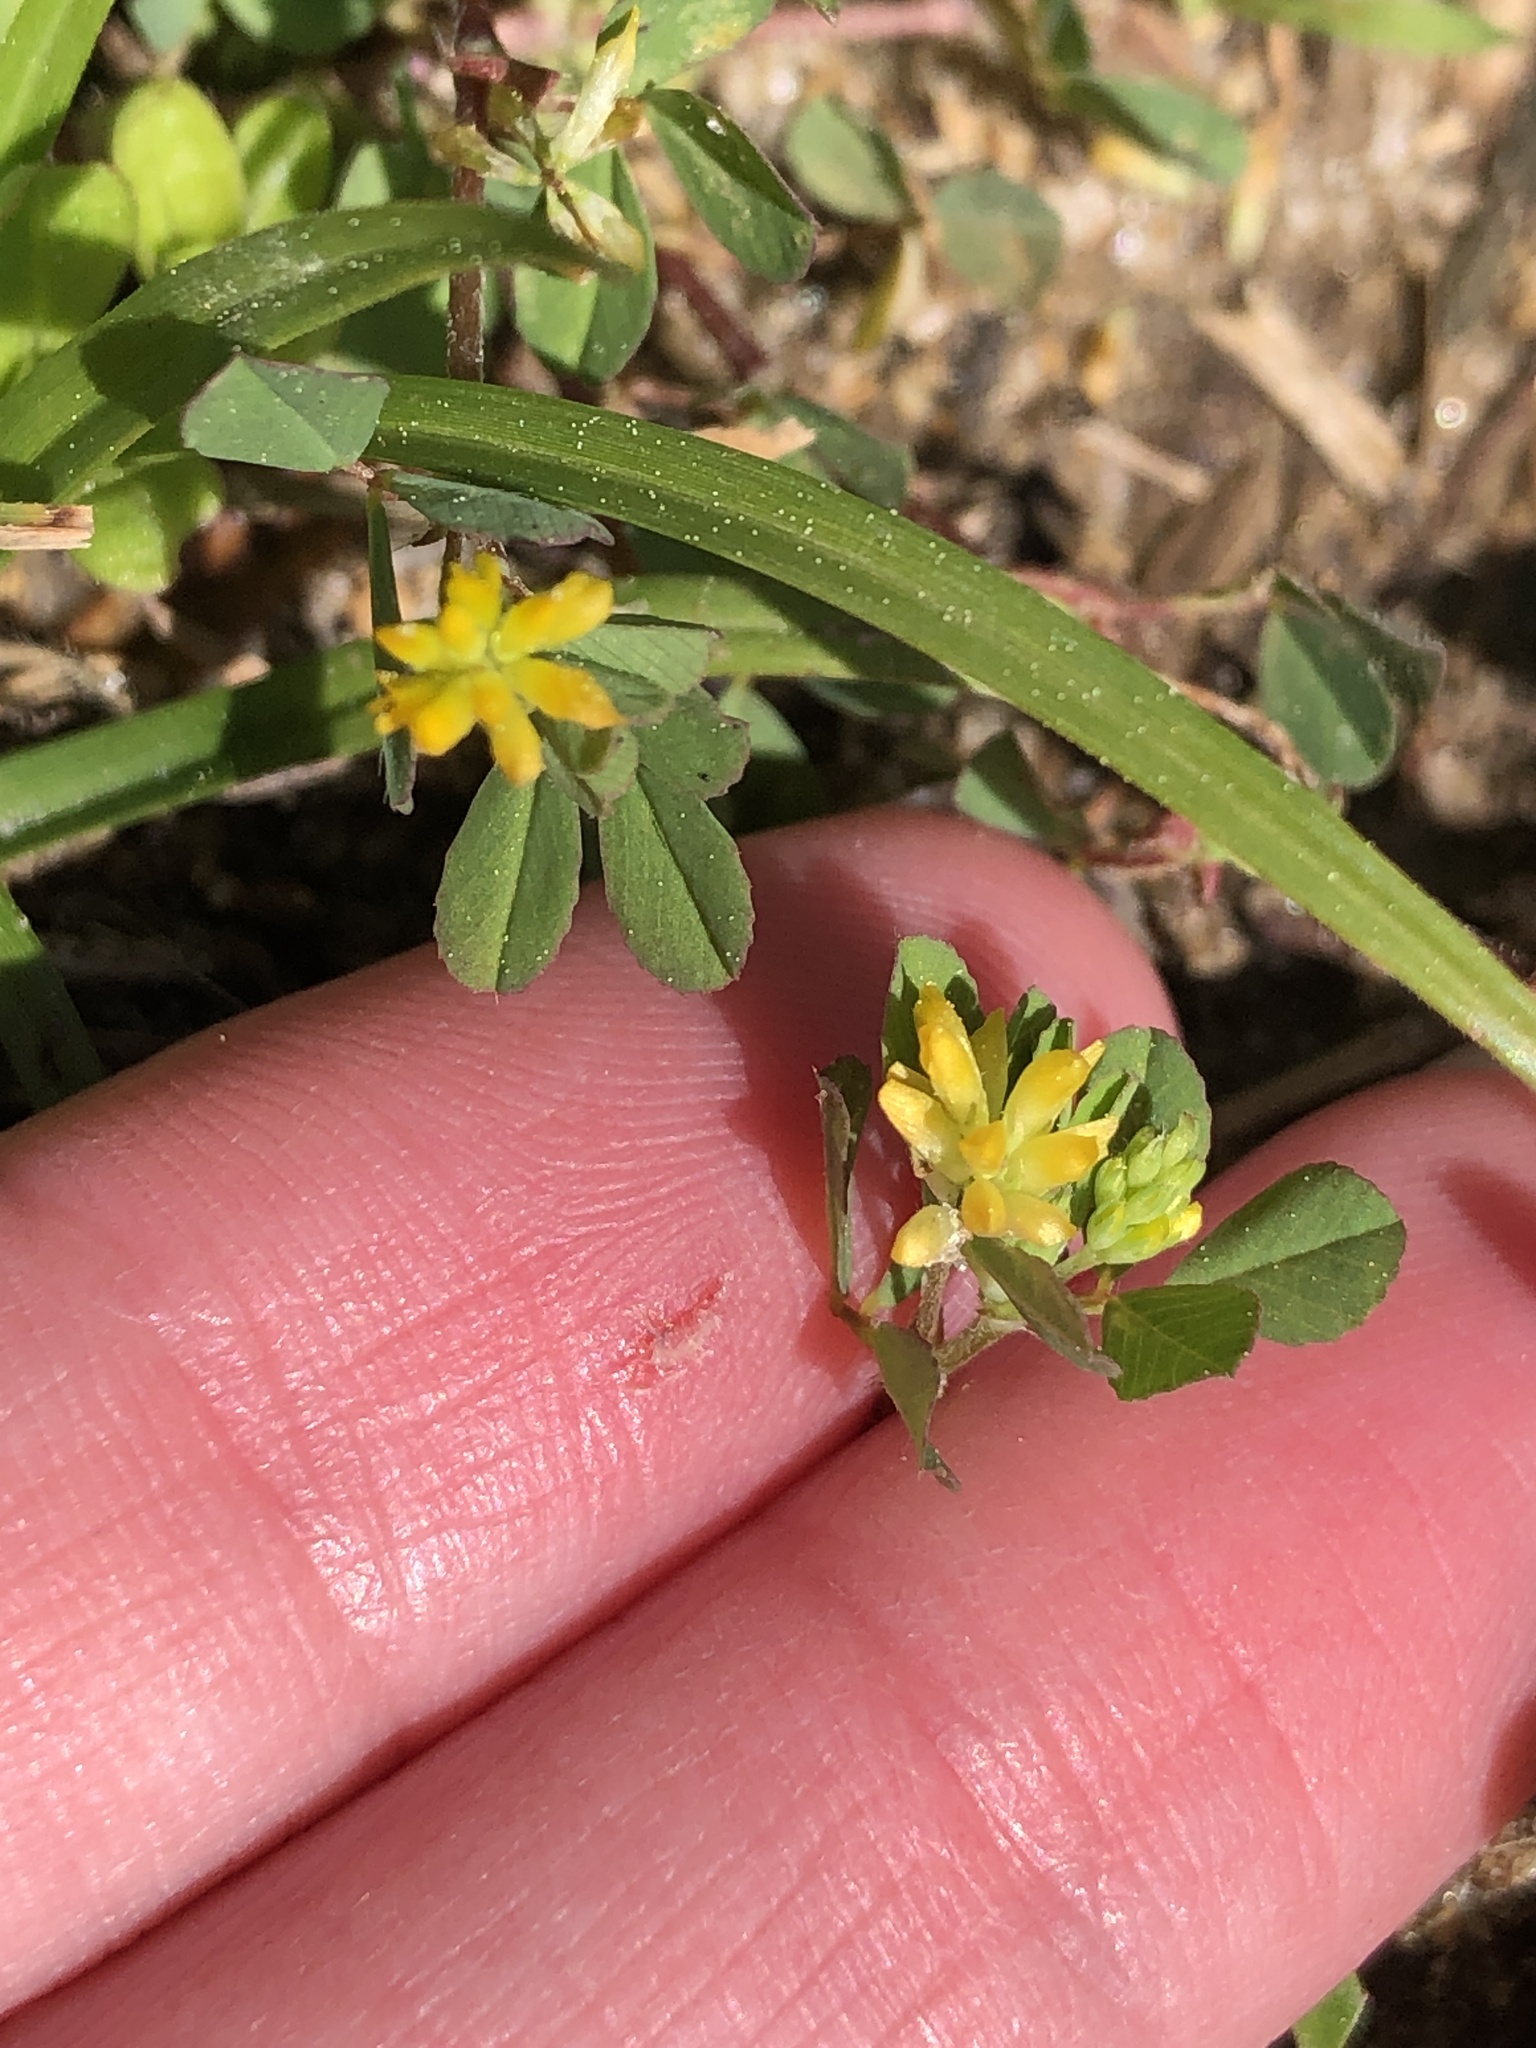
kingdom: Plantae
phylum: Tracheophyta
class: Magnoliopsida
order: Fabales
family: Fabaceae
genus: Trifolium
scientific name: Trifolium dubium
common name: Suckling clover
